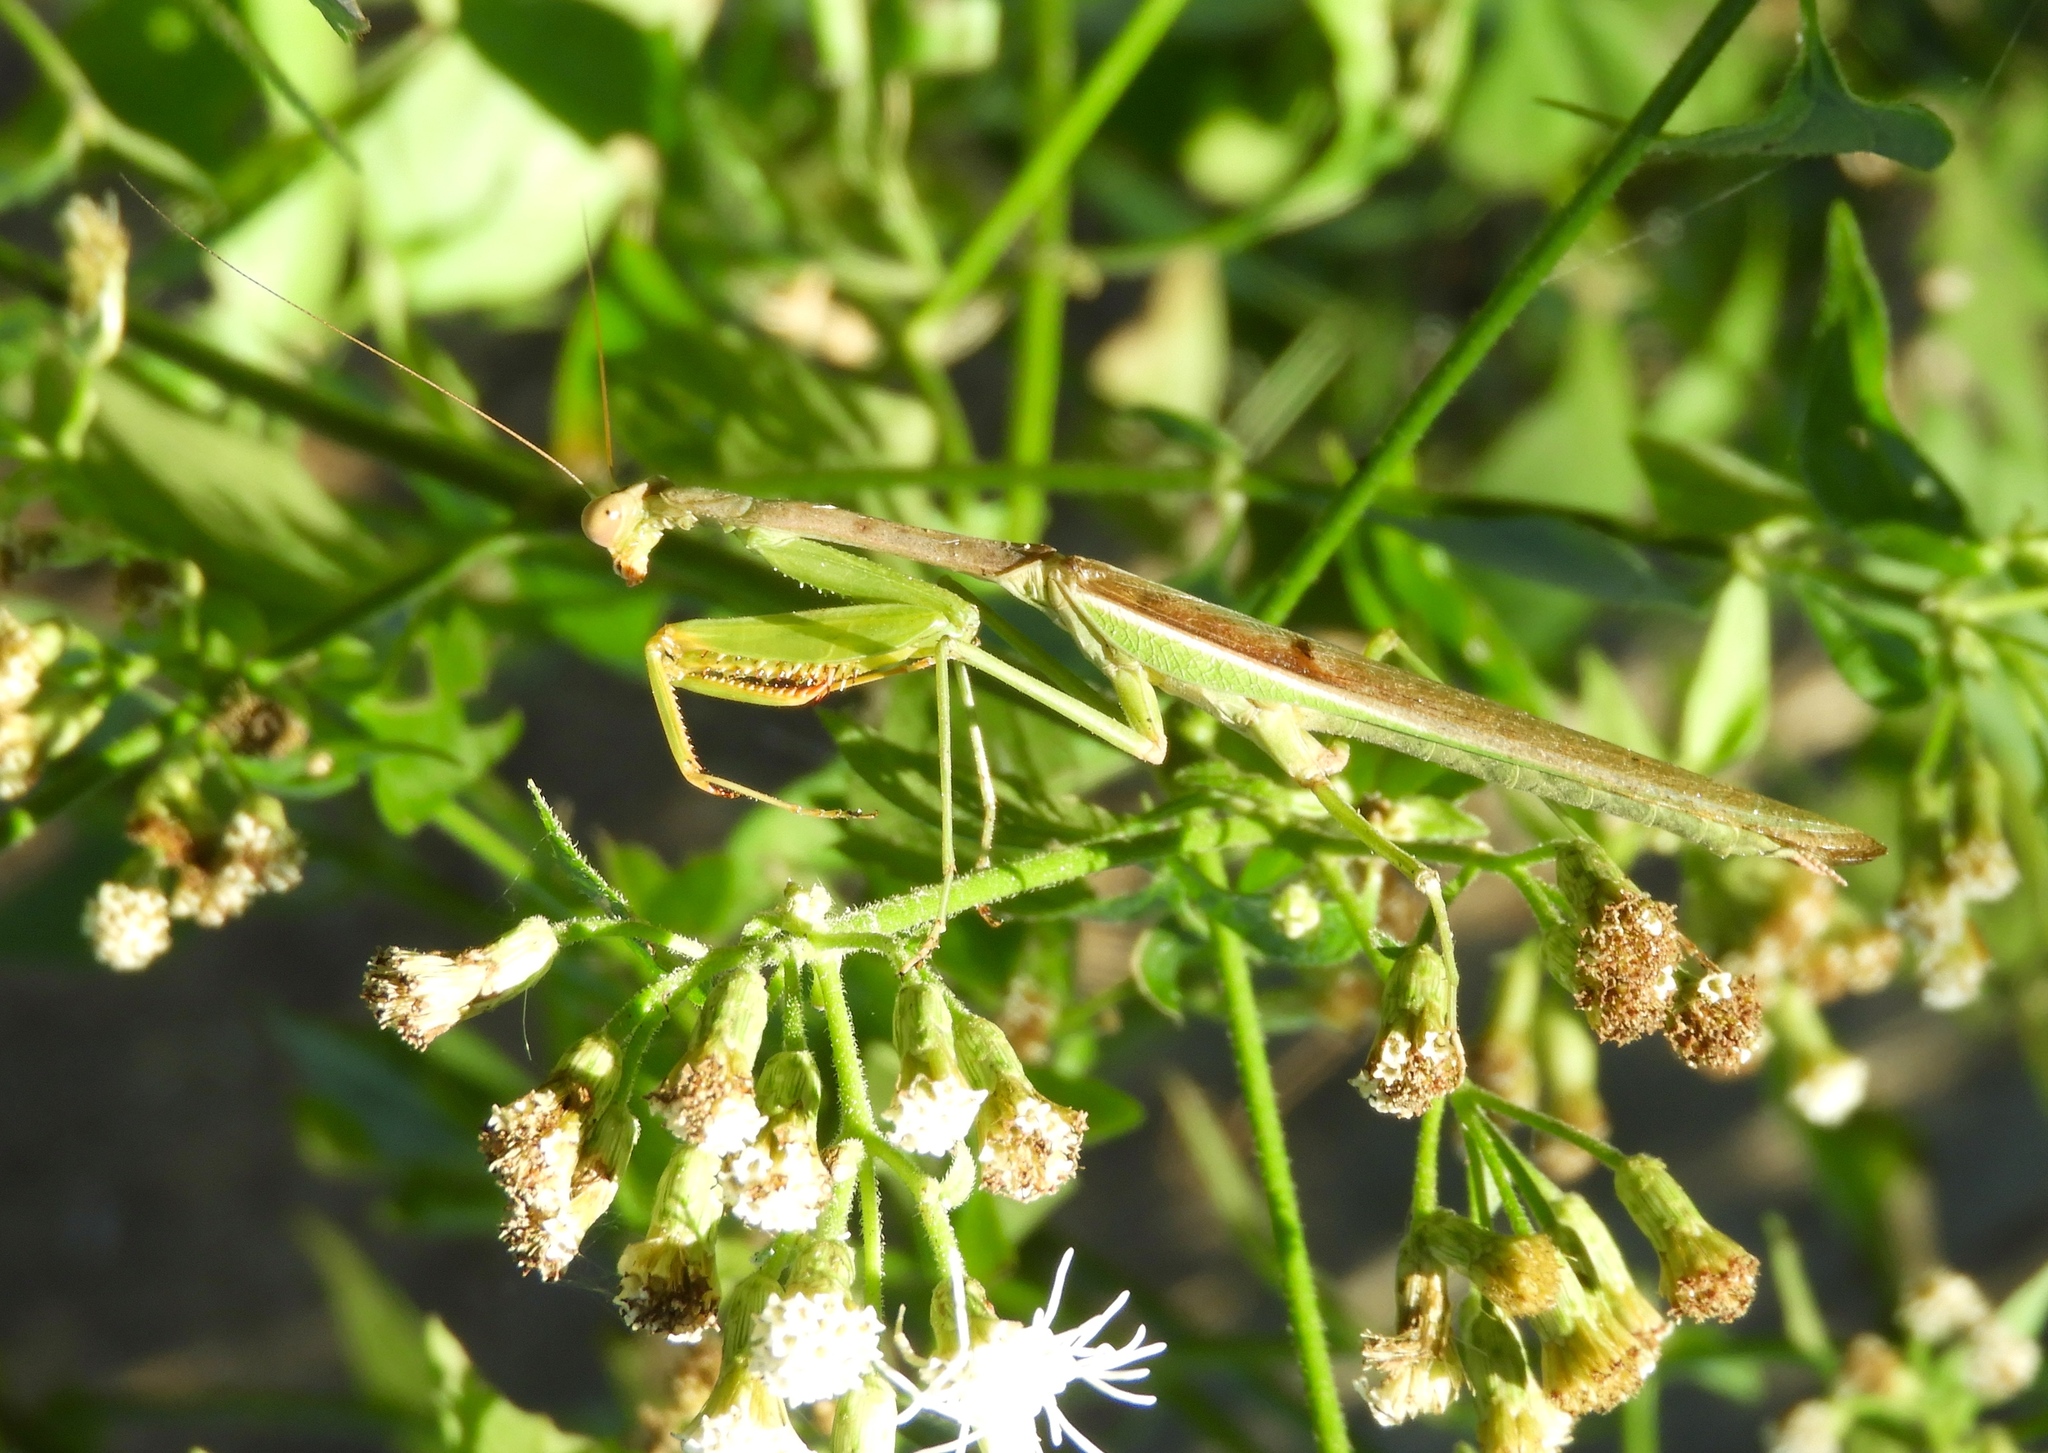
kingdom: Animalia
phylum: Arthropoda
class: Insecta
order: Mantodea
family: Mantidae
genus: Stagmomantis
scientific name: Stagmomantis montana
